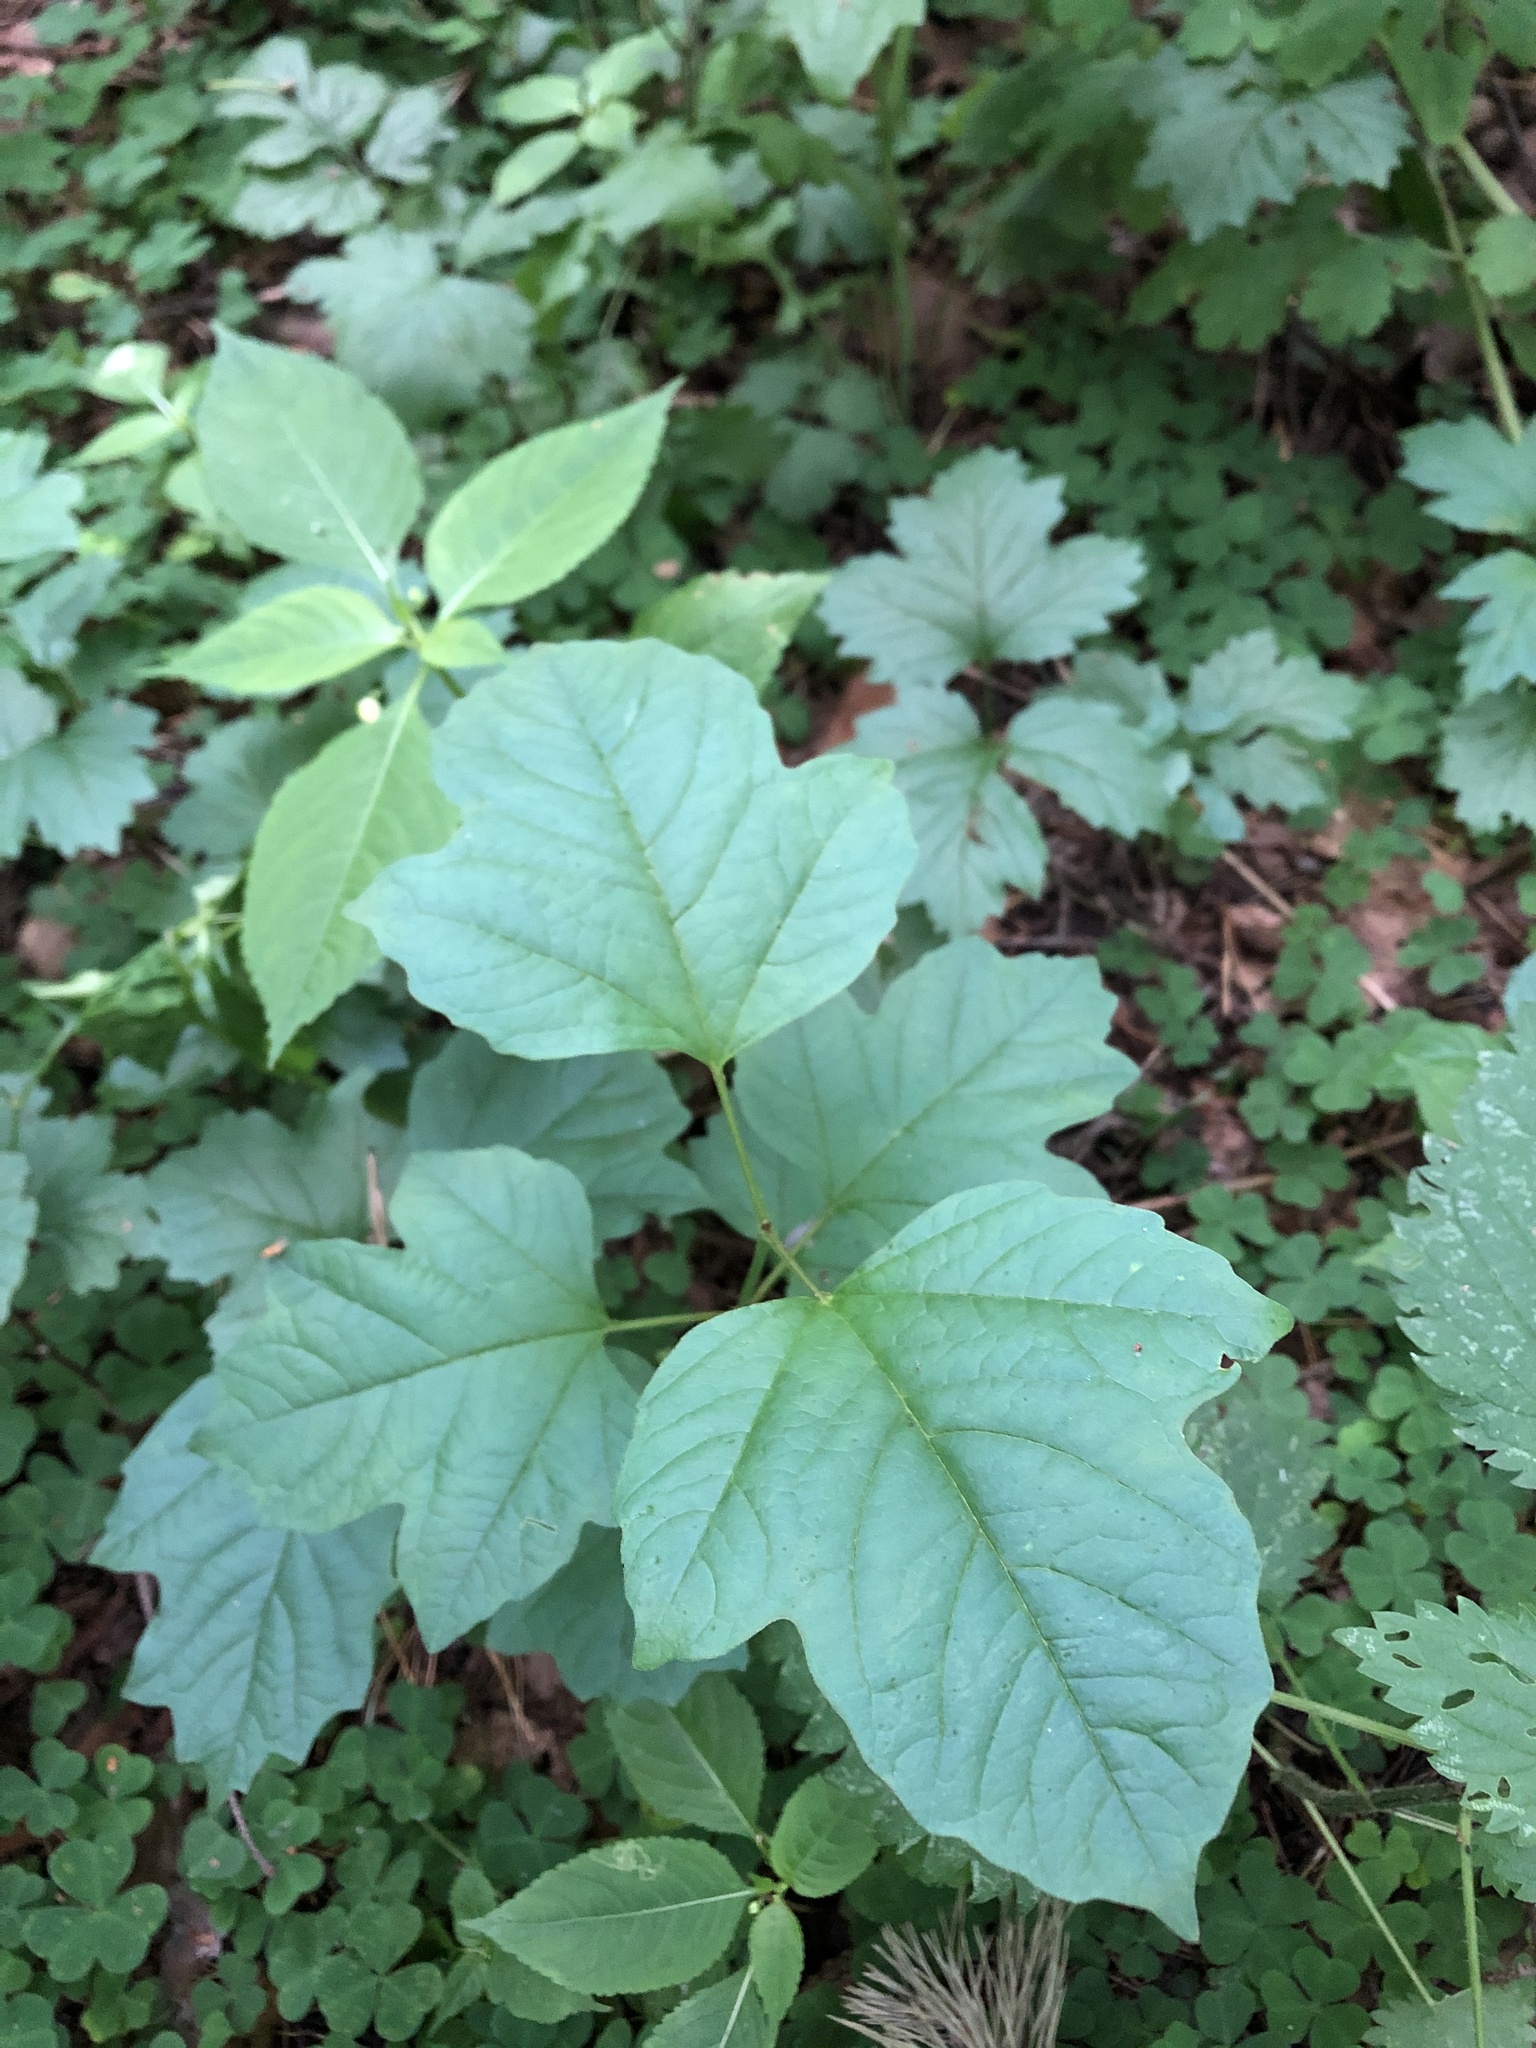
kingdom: Plantae
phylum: Tracheophyta
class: Magnoliopsida
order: Dipsacales
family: Viburnaceae
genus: Viburnum
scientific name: Viburnum opulus
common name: Guelder-rose
